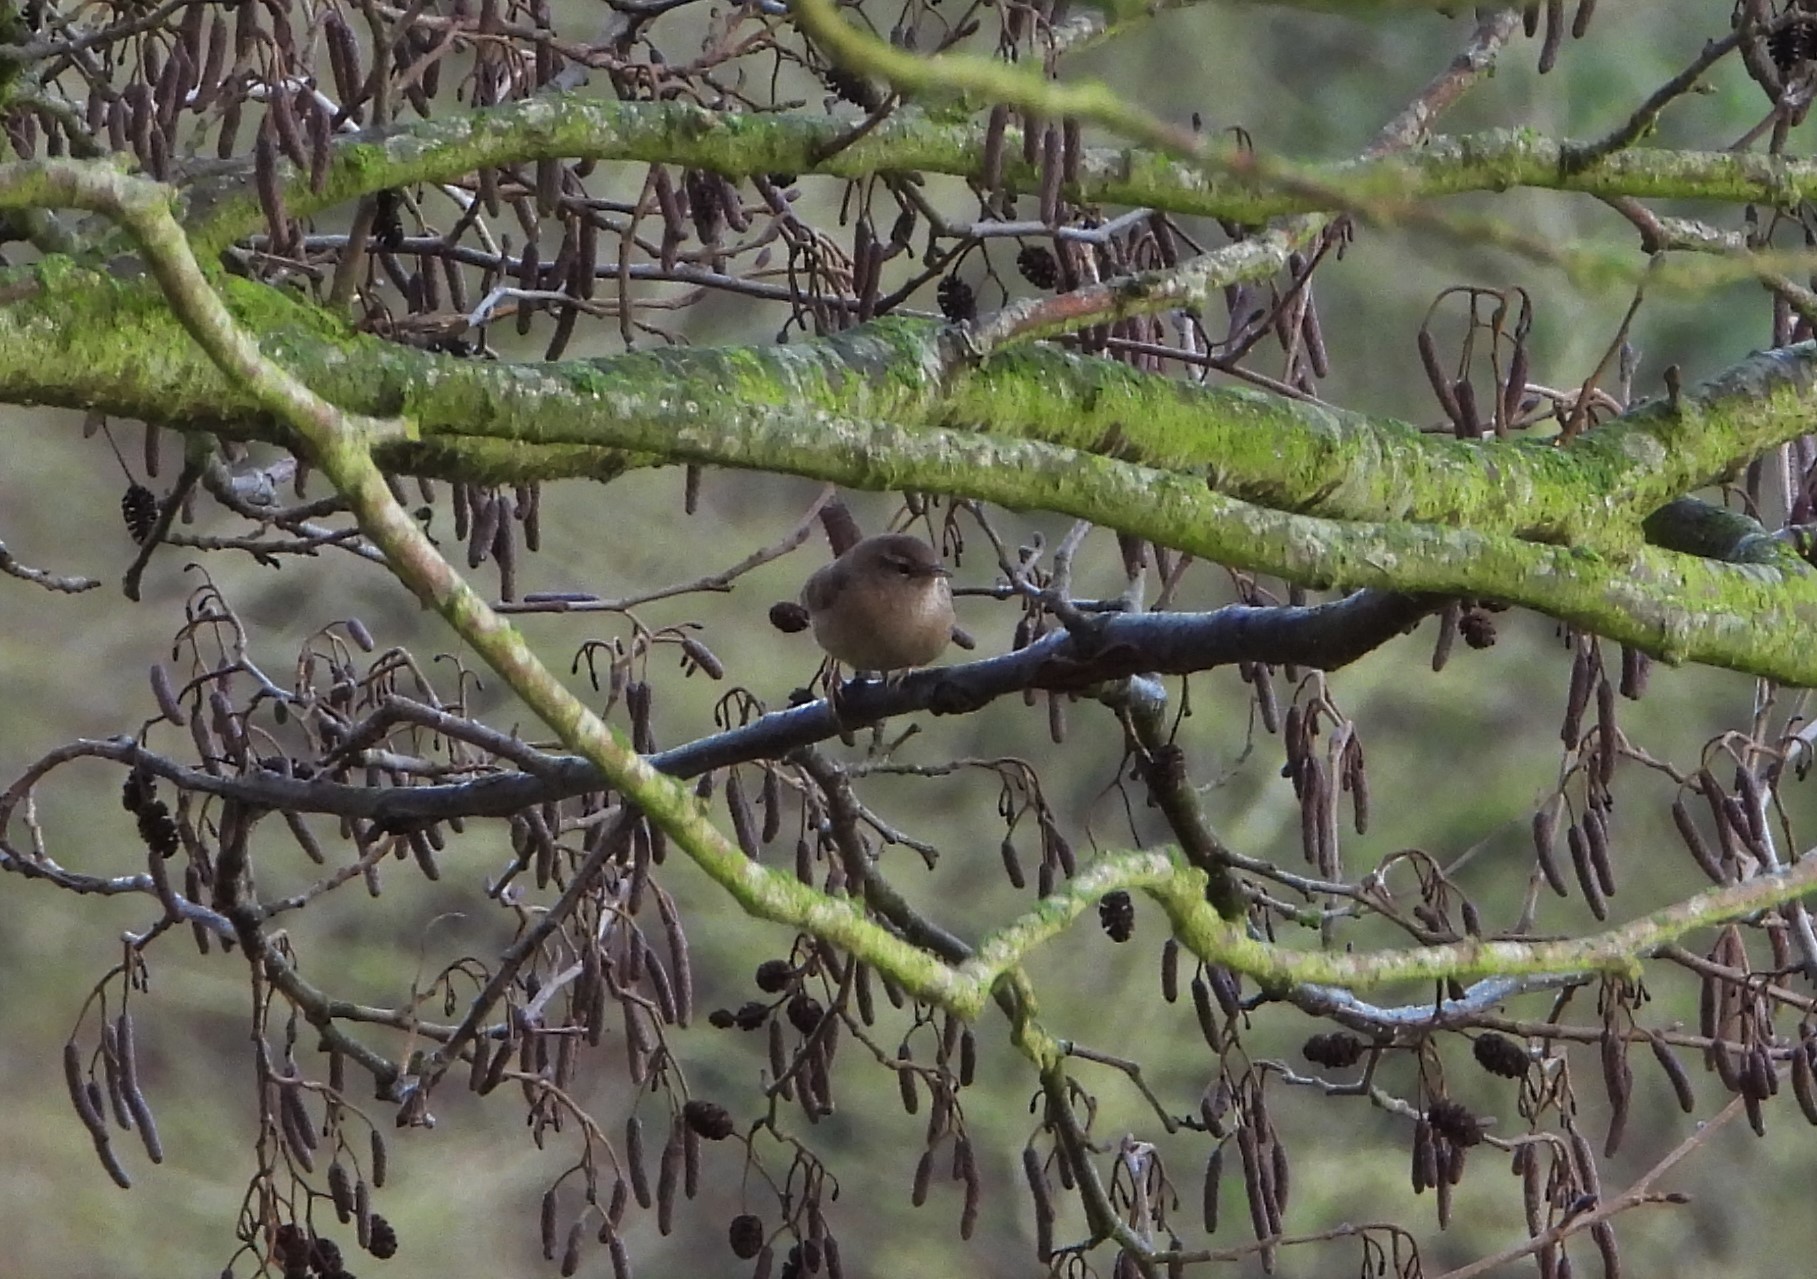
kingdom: Animalia
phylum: Chordata
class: Aves
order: Passeriformes
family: Troglodytidae
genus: Troglodytes
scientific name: Troglodytes troglodytes
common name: Eurasian wren
